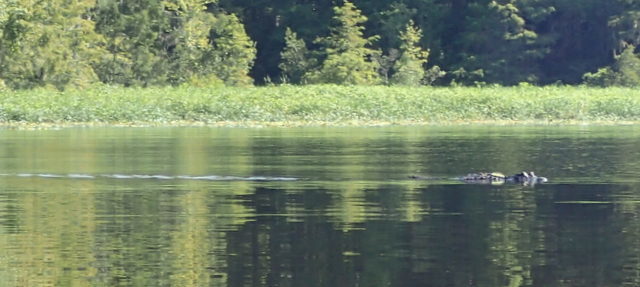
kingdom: Animalia
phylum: Chordata
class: Crocodylia
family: Alligatoridae
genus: Alligator
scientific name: Alligator mississippiensis
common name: American alligator
